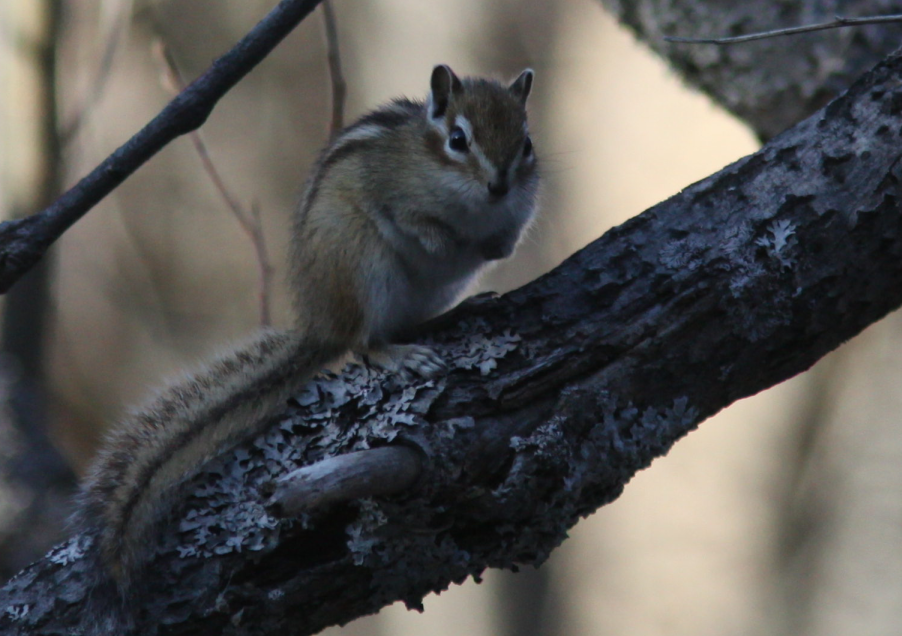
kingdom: Animalia
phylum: Chordata
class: Mammalia
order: Rodentia
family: Sciuridae
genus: Tamias
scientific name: Tamias sibiricus
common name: Siberian chipmunk
